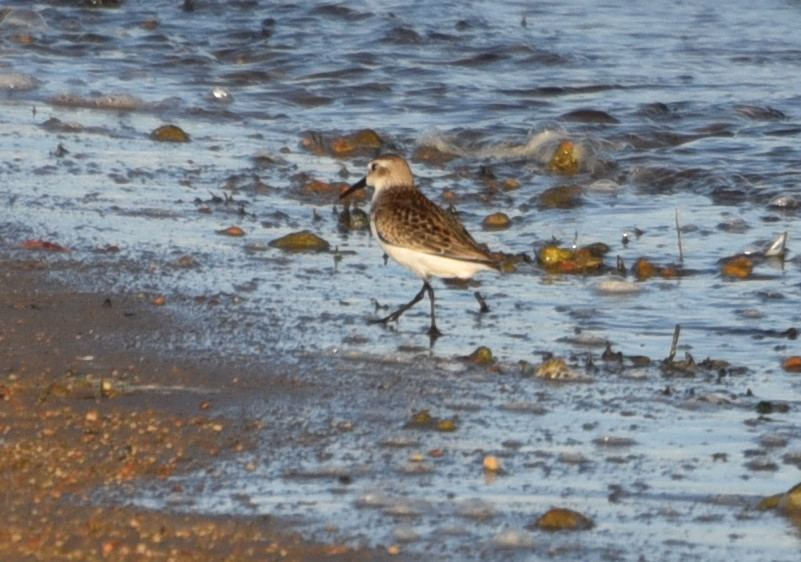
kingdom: Animalia
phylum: Chordata
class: Aves
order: Charadriiformes
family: Scolopacidae
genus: Calidris
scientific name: Calidris mauri
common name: Western sandpiper
